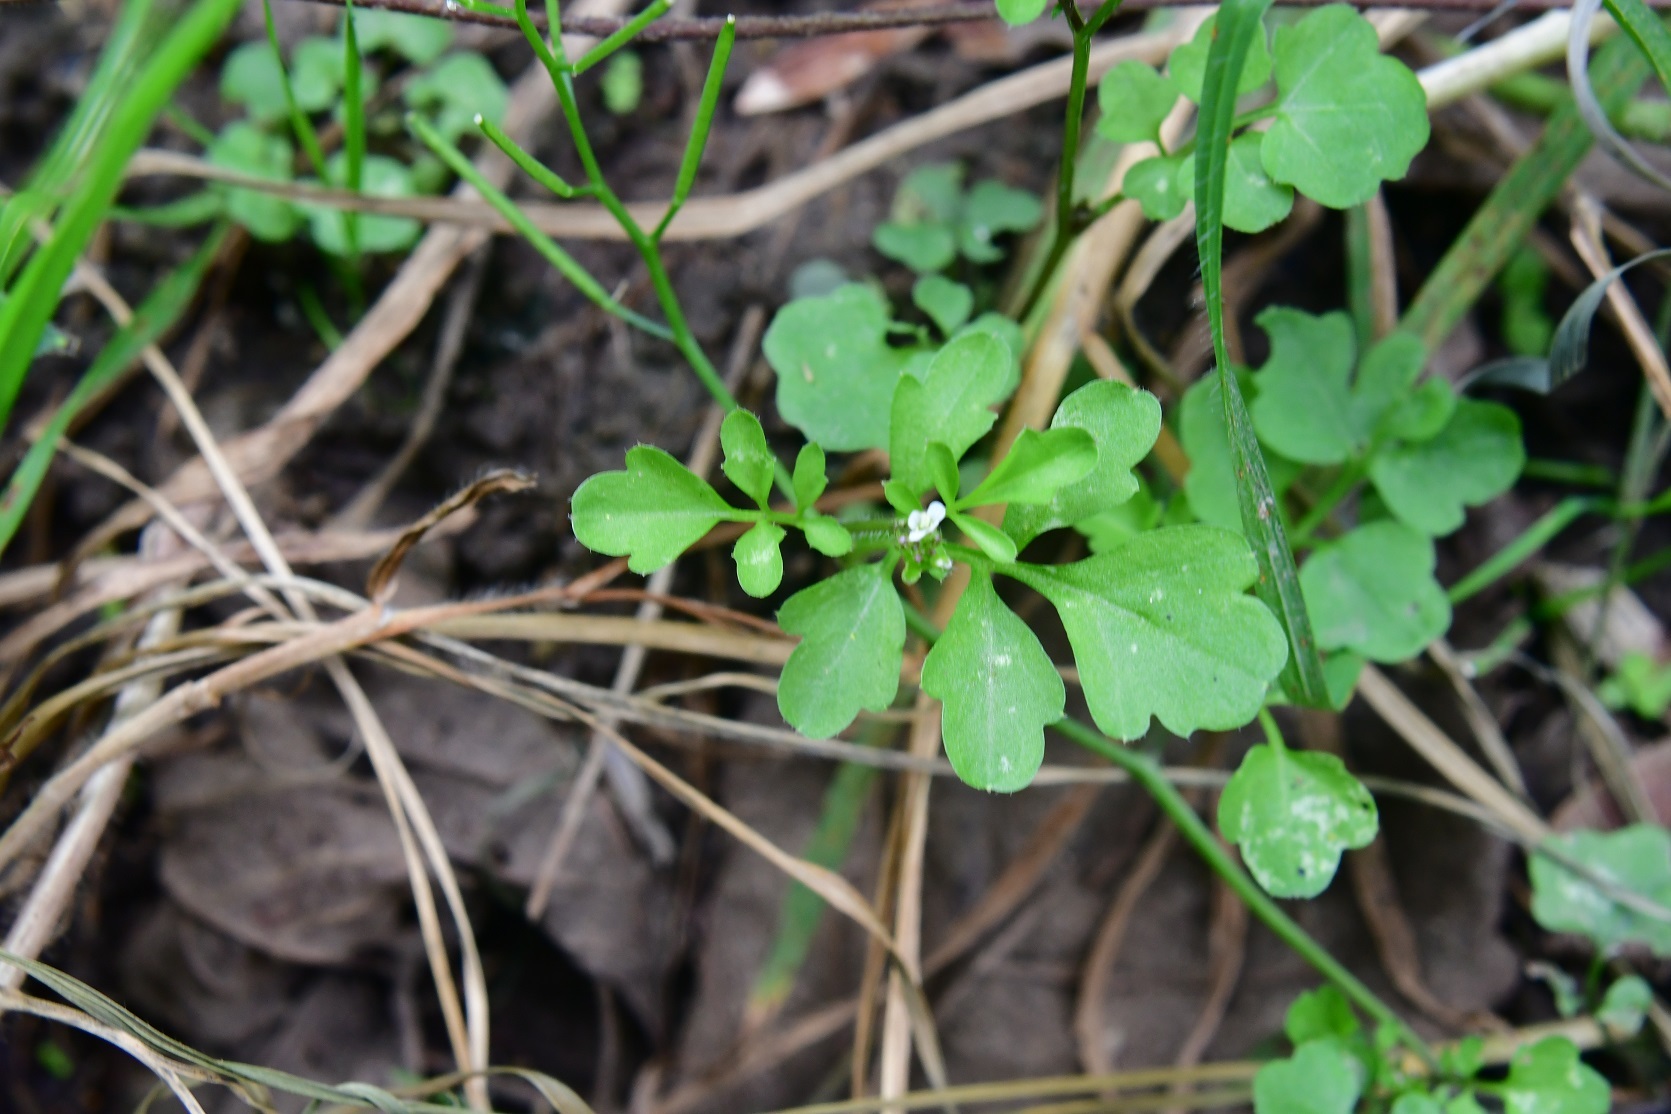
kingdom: Plantae
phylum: Tracheophyta
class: Magnoliopsida
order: Brassicales
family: Brassicaceae
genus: Cardamine
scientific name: Cardamine occulta
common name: Asian wavy bittercress
